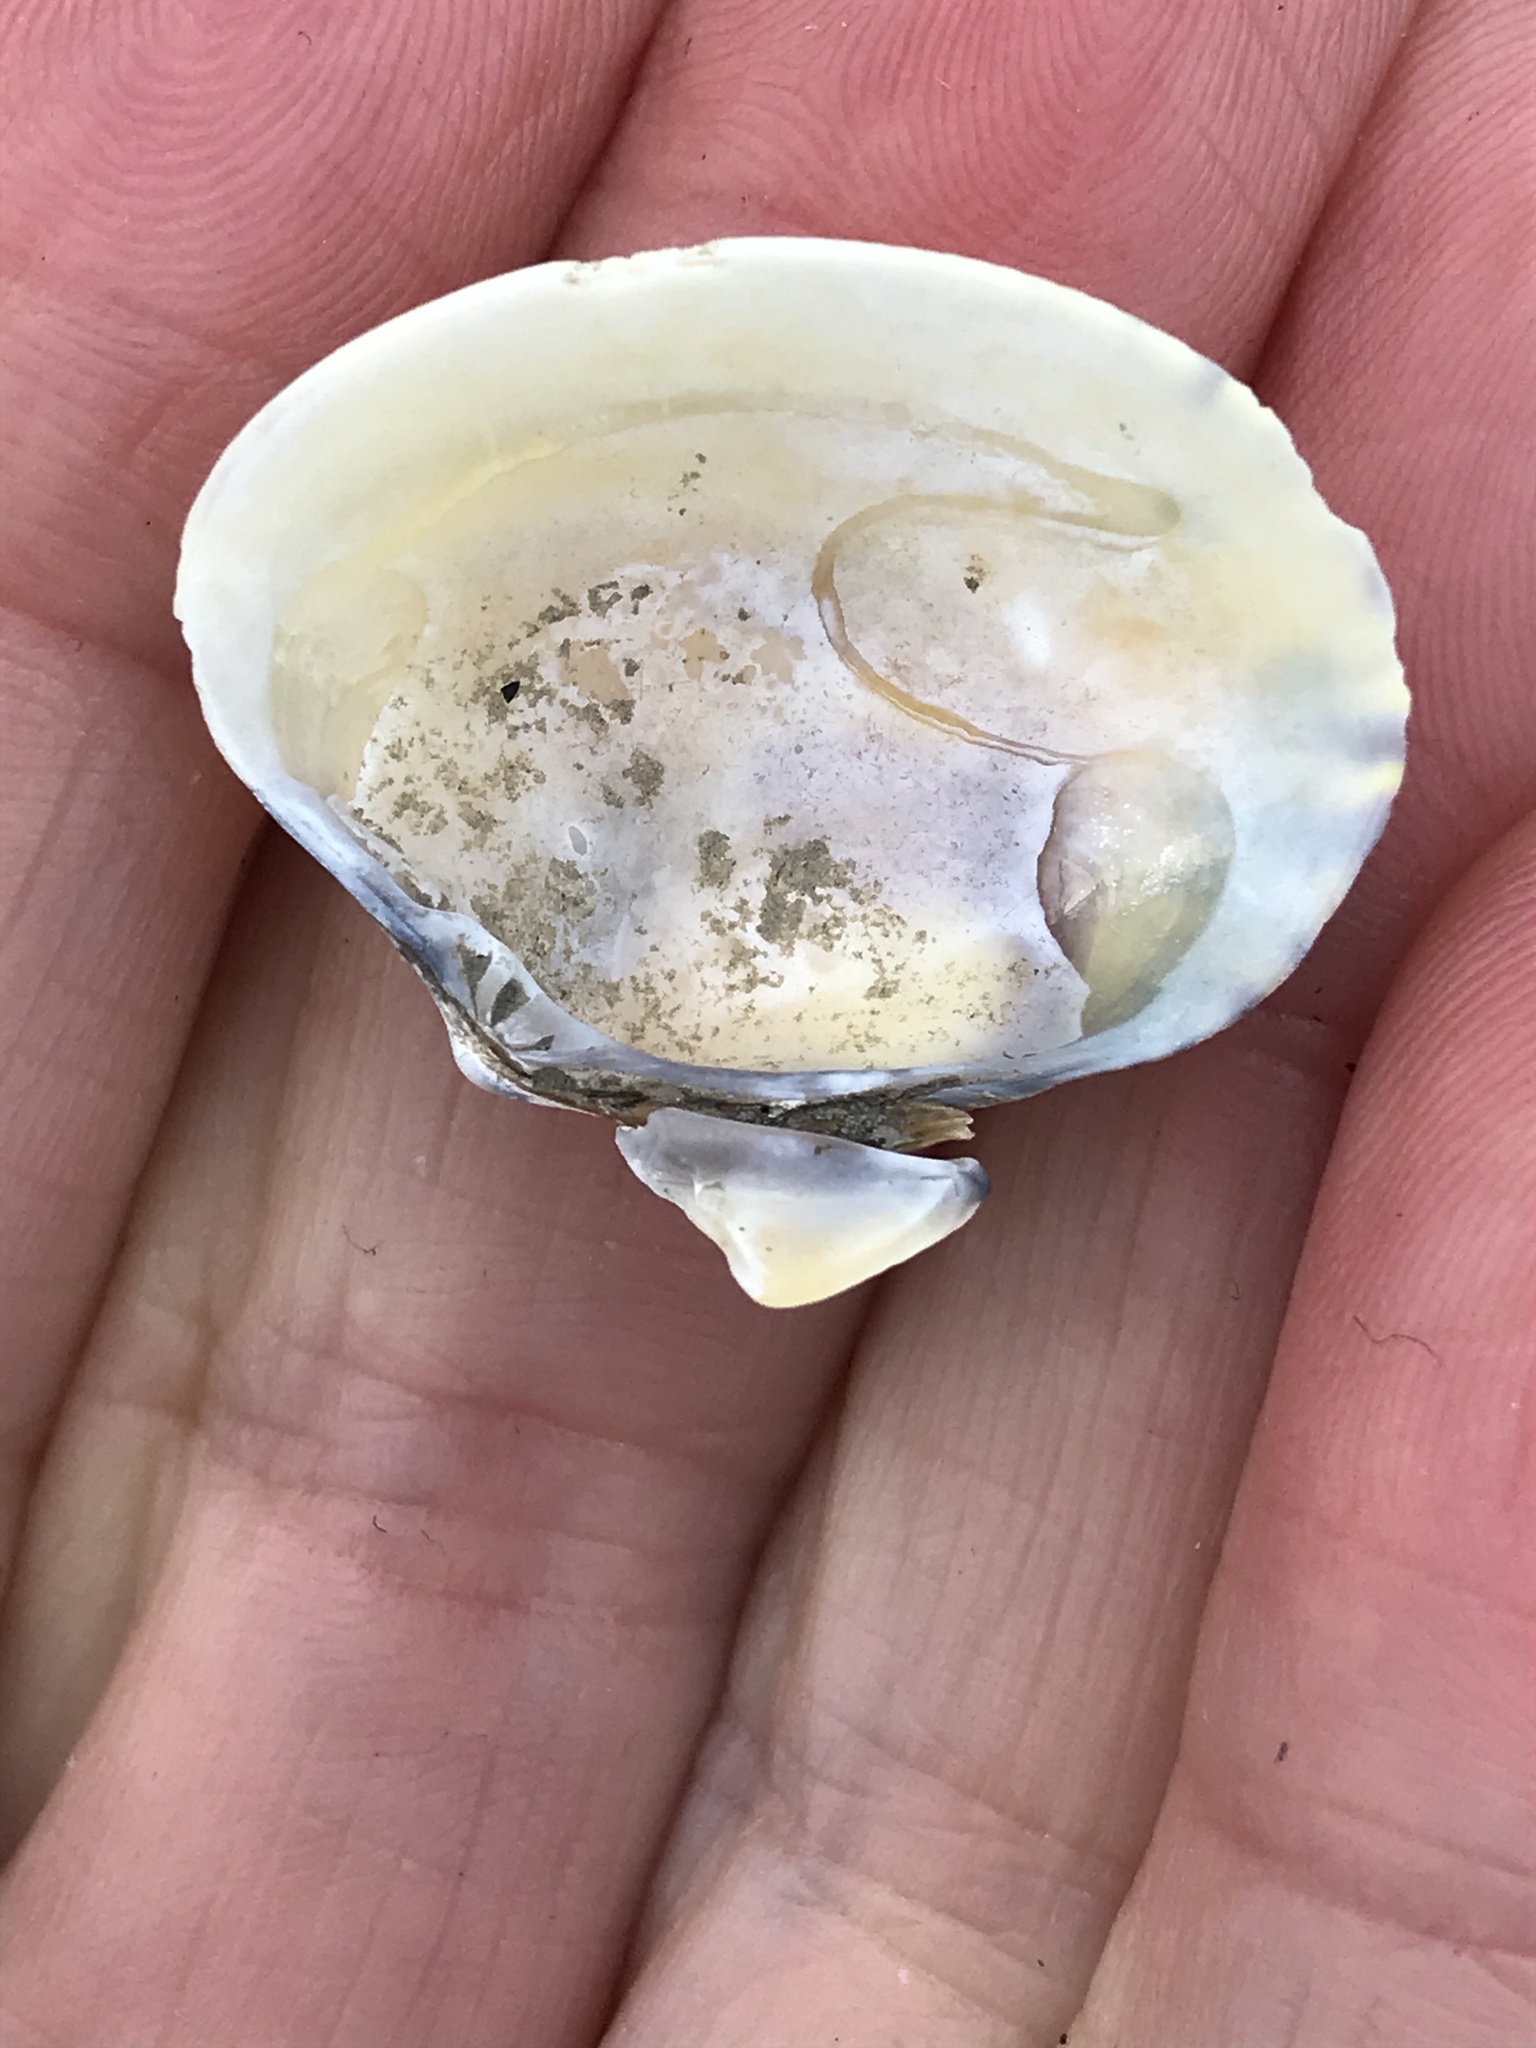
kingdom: Animalia
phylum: Mollusca
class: Bivalvia
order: Venerida
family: Veneridae
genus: Ruditapes
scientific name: Ruditapes philippinarum
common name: Manila clam
